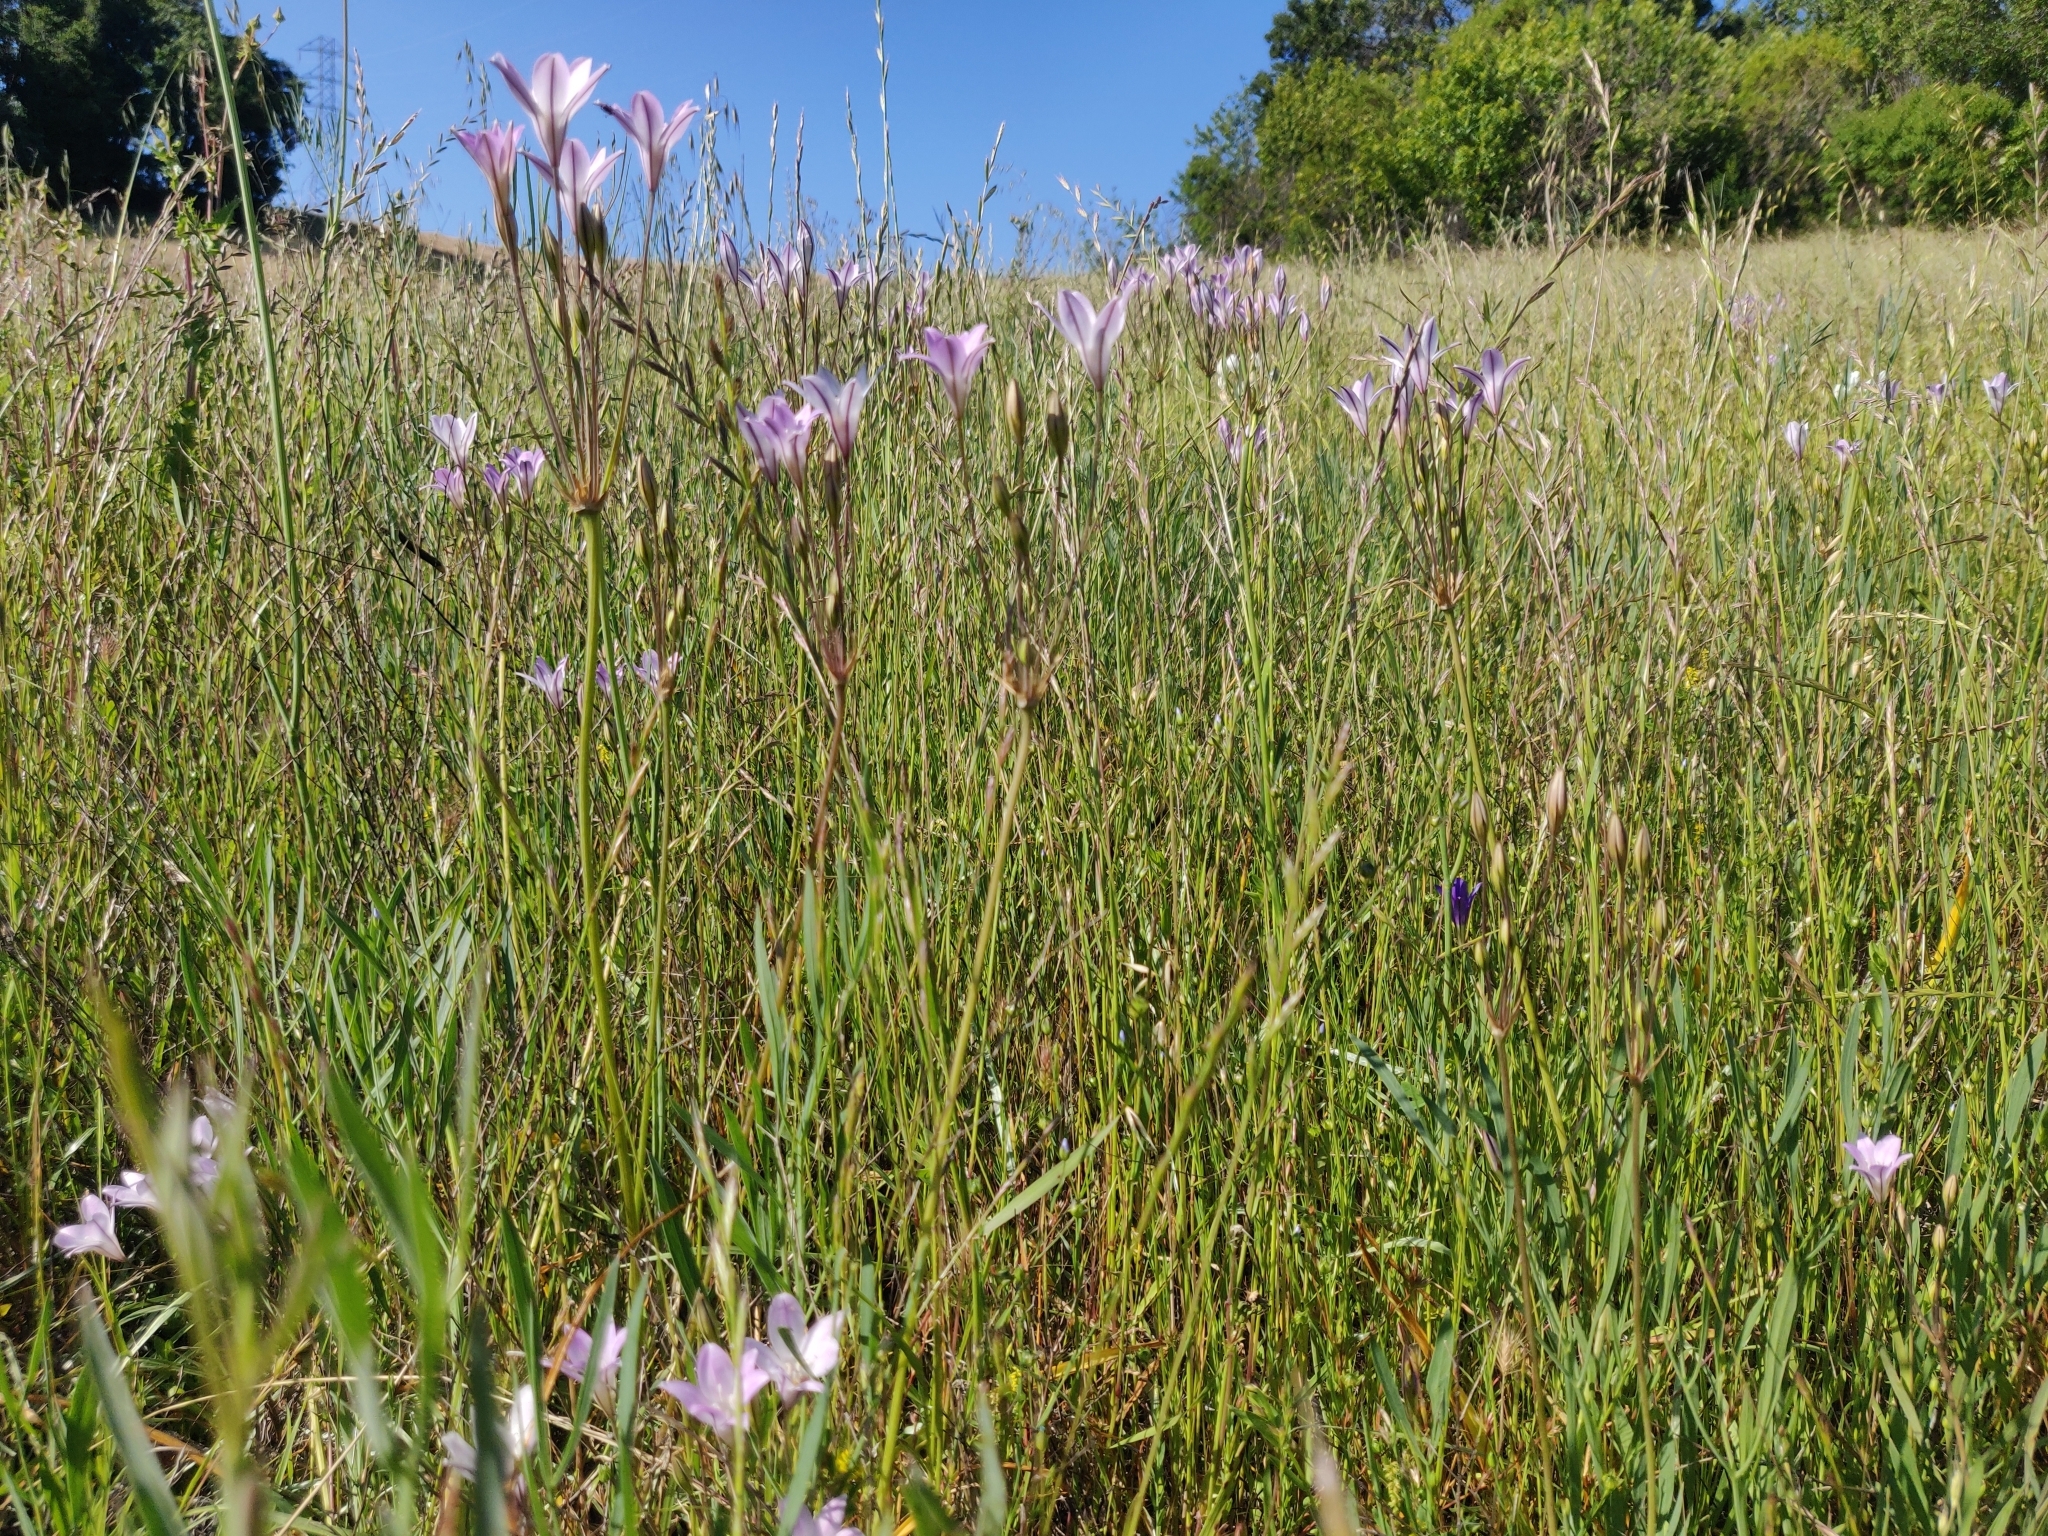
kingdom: Plantae
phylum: Tracheophyta
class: Liliopsida
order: Asparagales
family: Asparagaceae
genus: Triteleia
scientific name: Triteleia peduncularis
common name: Long-ray brodiaea
